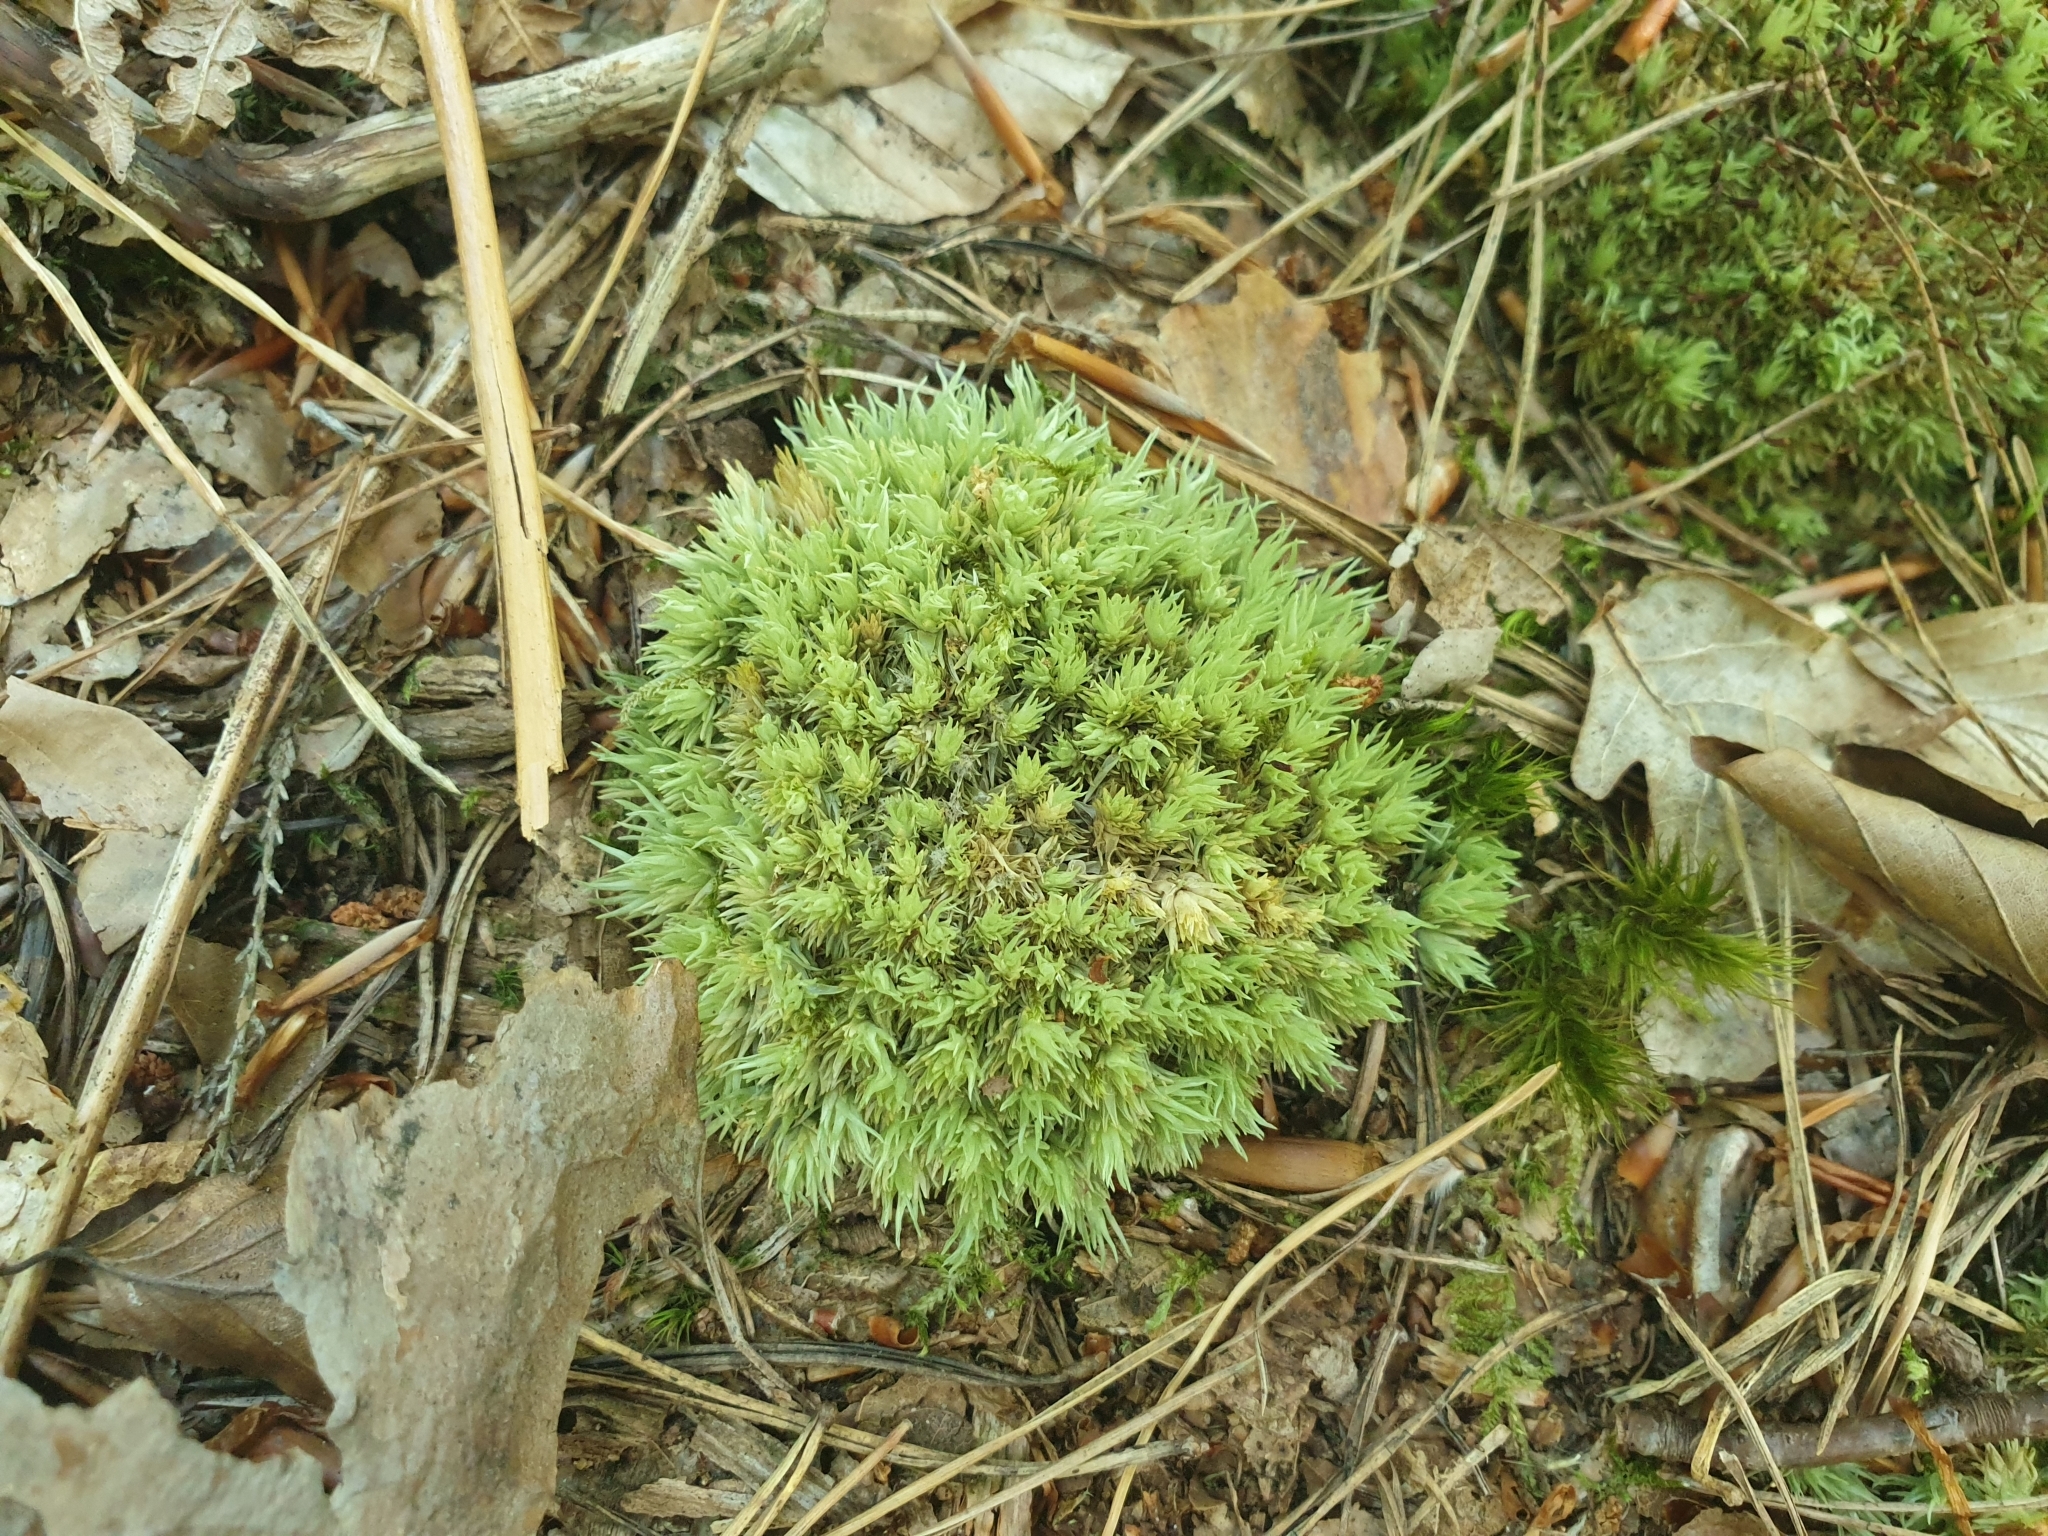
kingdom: Plantae
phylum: Bryophyta
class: Bryopsida
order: Dicranales
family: Leucobryaceae
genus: Leucobryum
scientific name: Leucobryum glaucum
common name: Large white-moss
